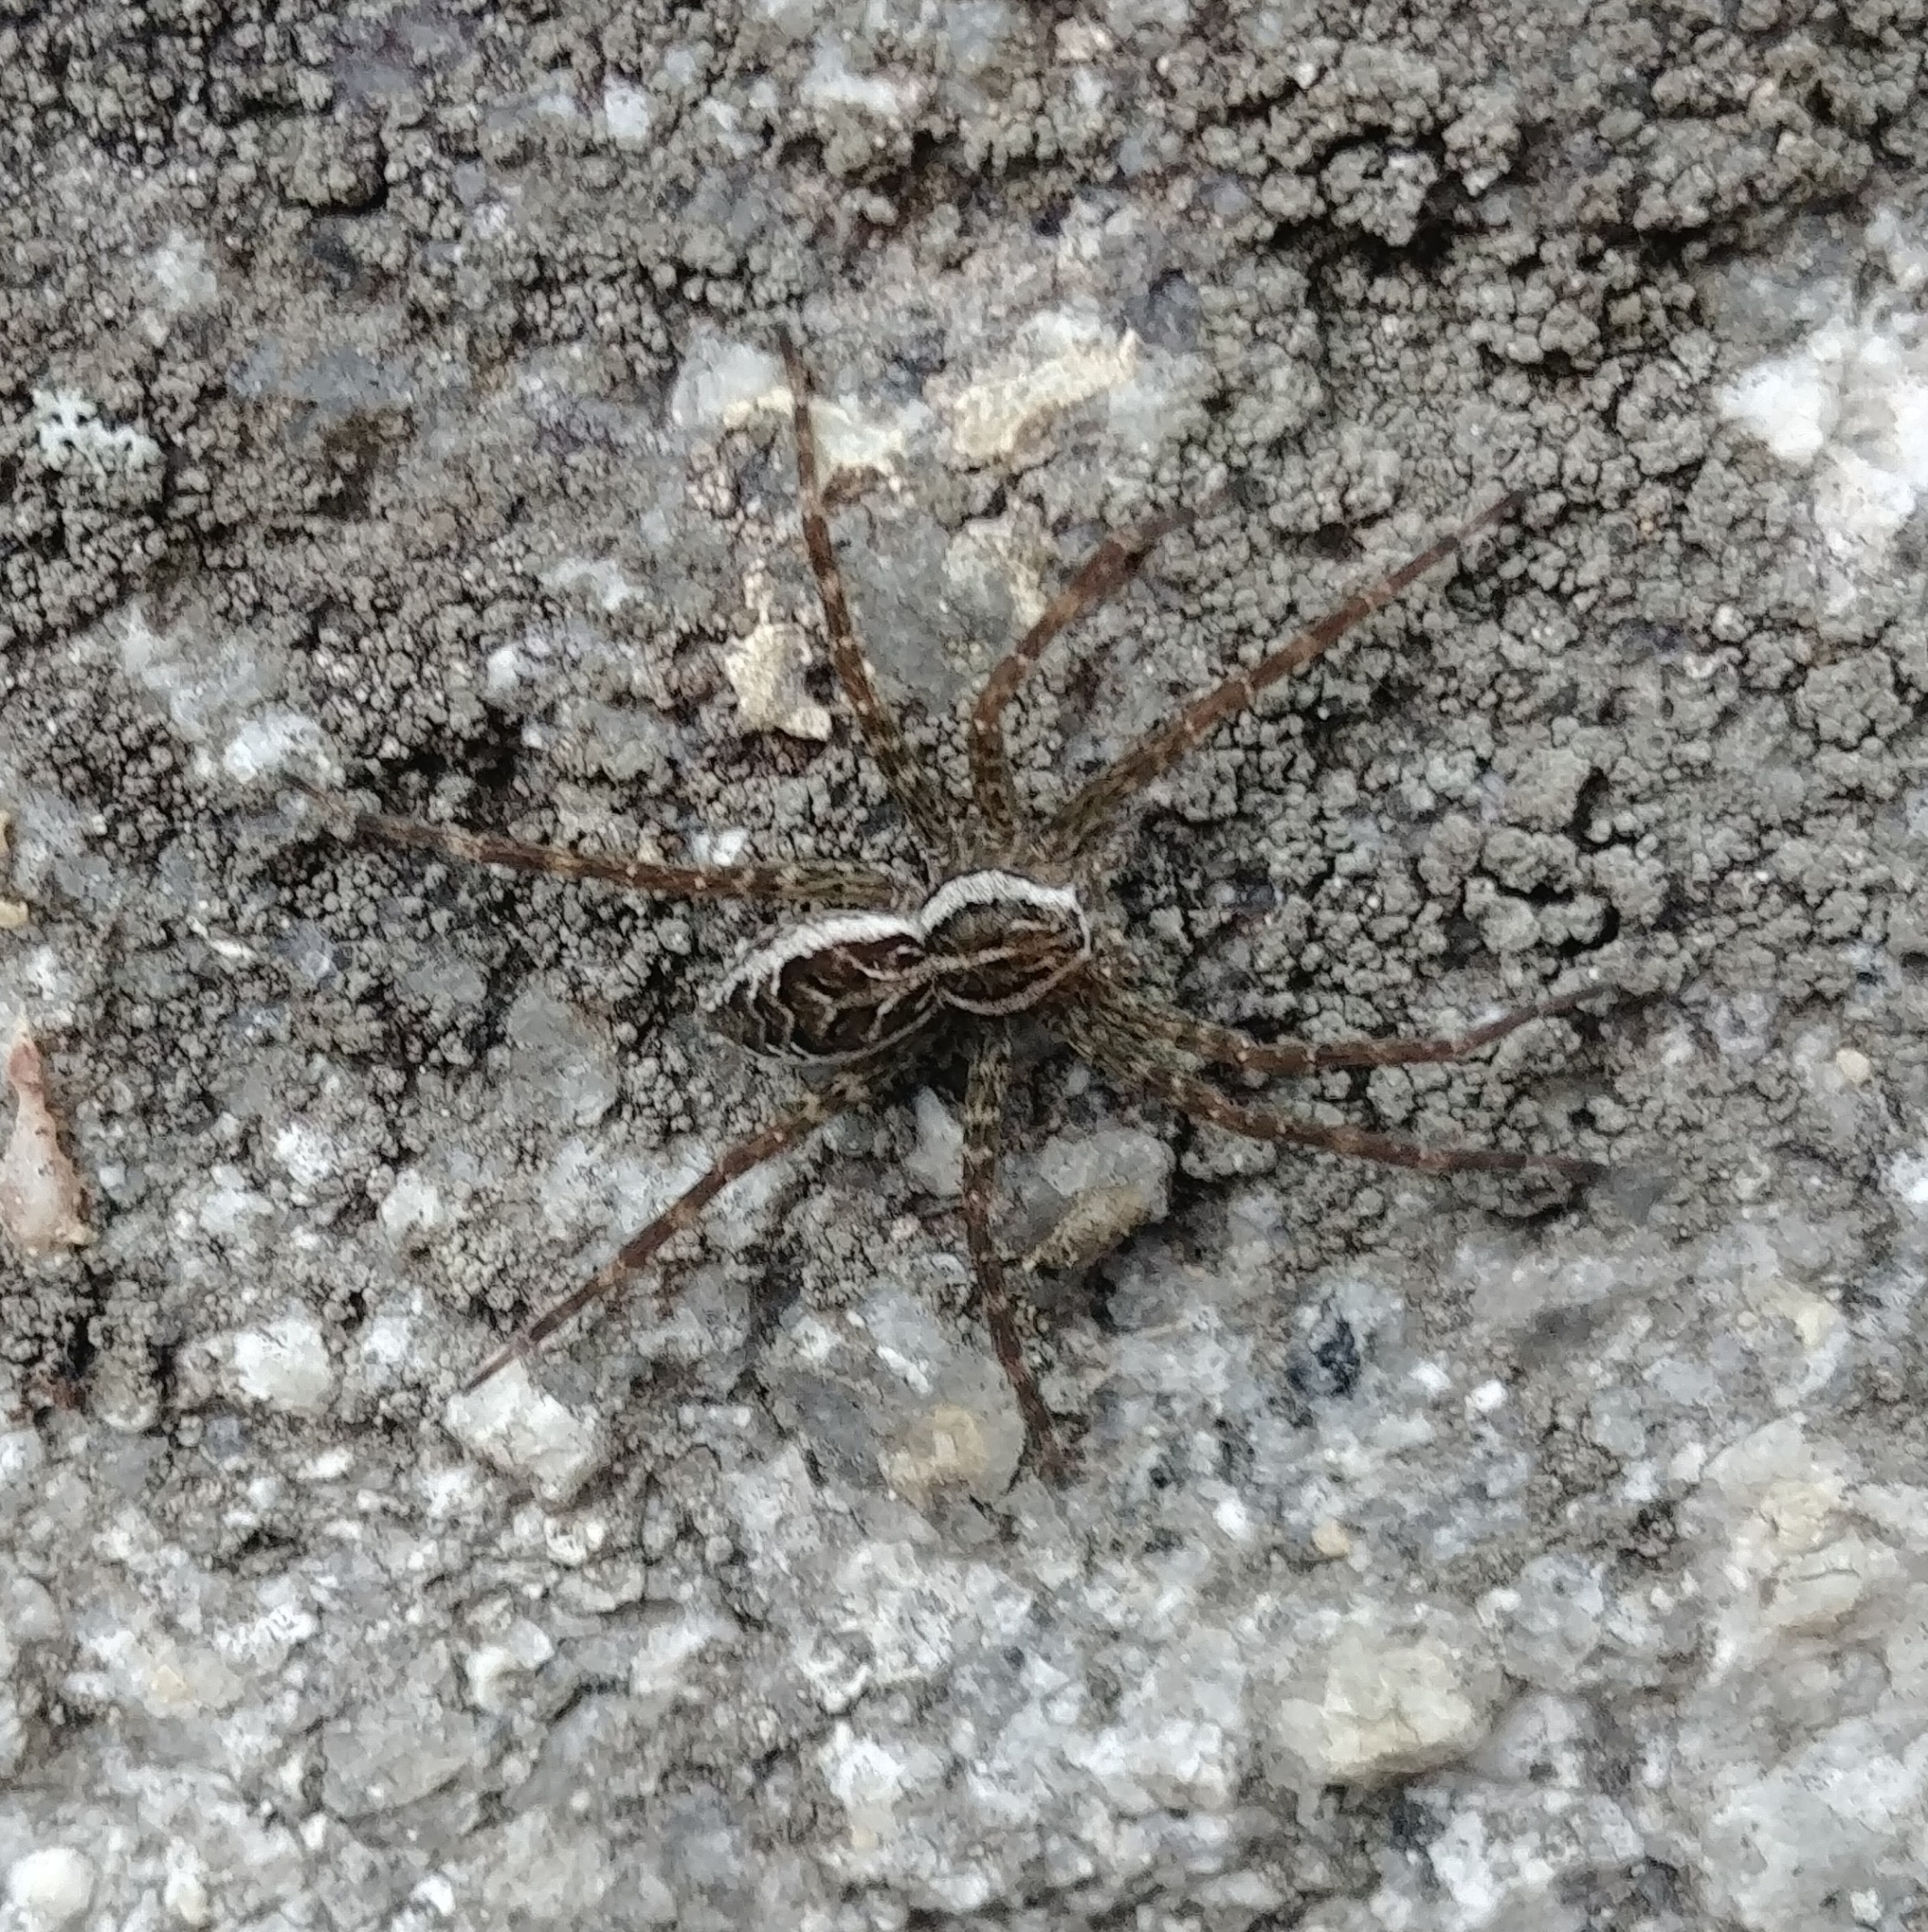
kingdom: Animalia
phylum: Arthropoda
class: Arachnida
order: Araneae
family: Pisauridae
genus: Dolomedes
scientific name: Dolomedes scriptus
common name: Striped fishing spider
